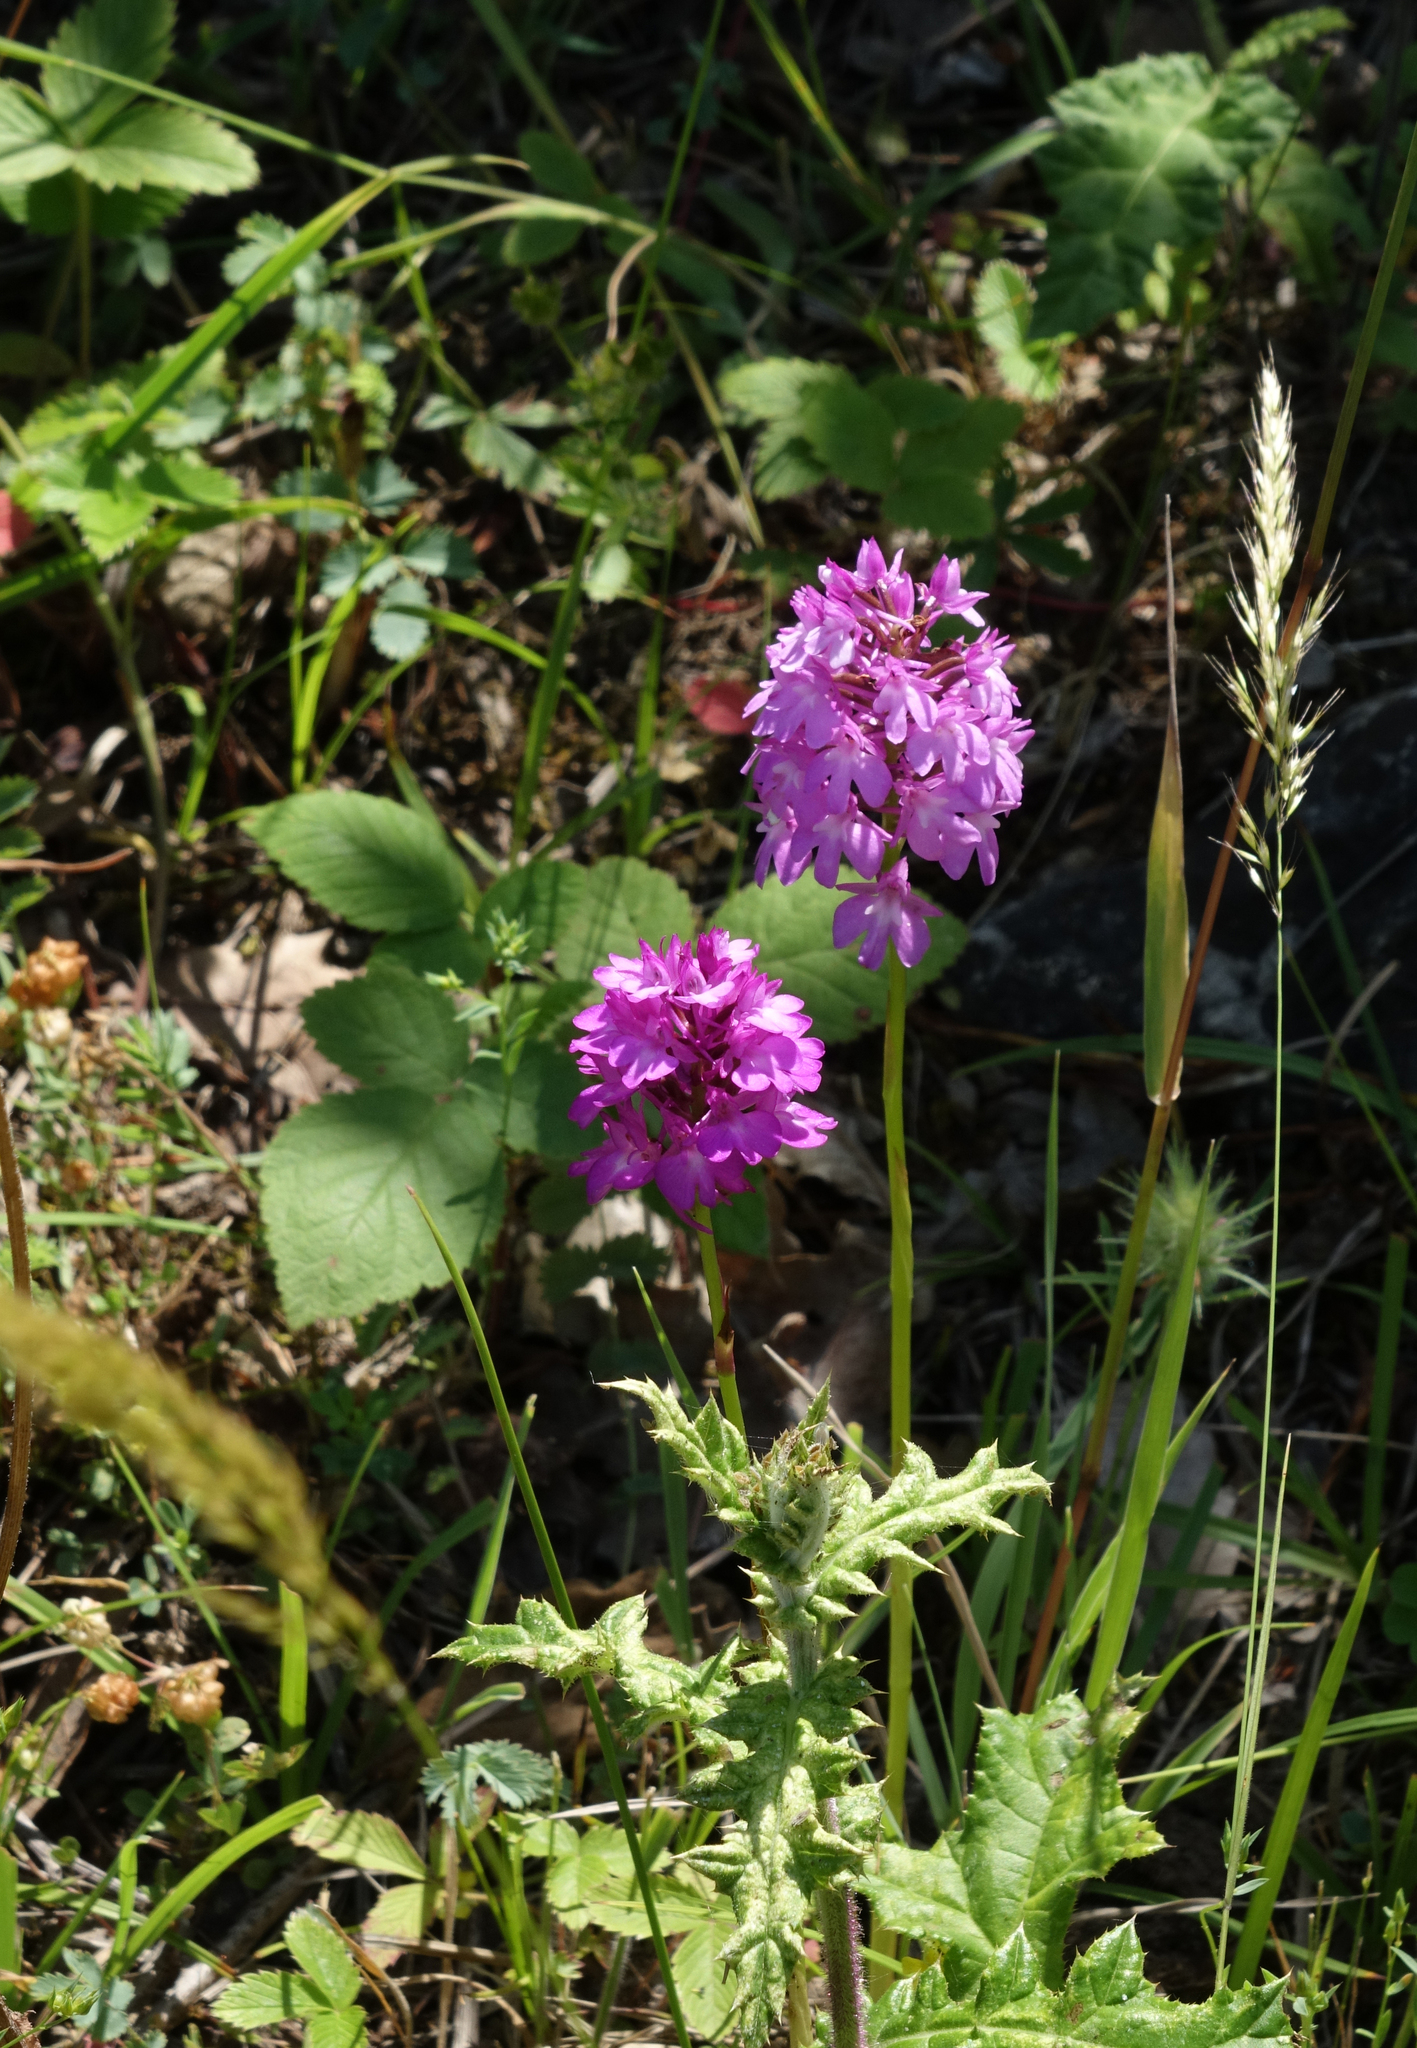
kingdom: Plantae
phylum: Tracheophyta
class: Liliopsida
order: Asparagales
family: Orchidaceae
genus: Anacamptis
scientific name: Anacamptis pyramidalis
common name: Pyramidal orchid
